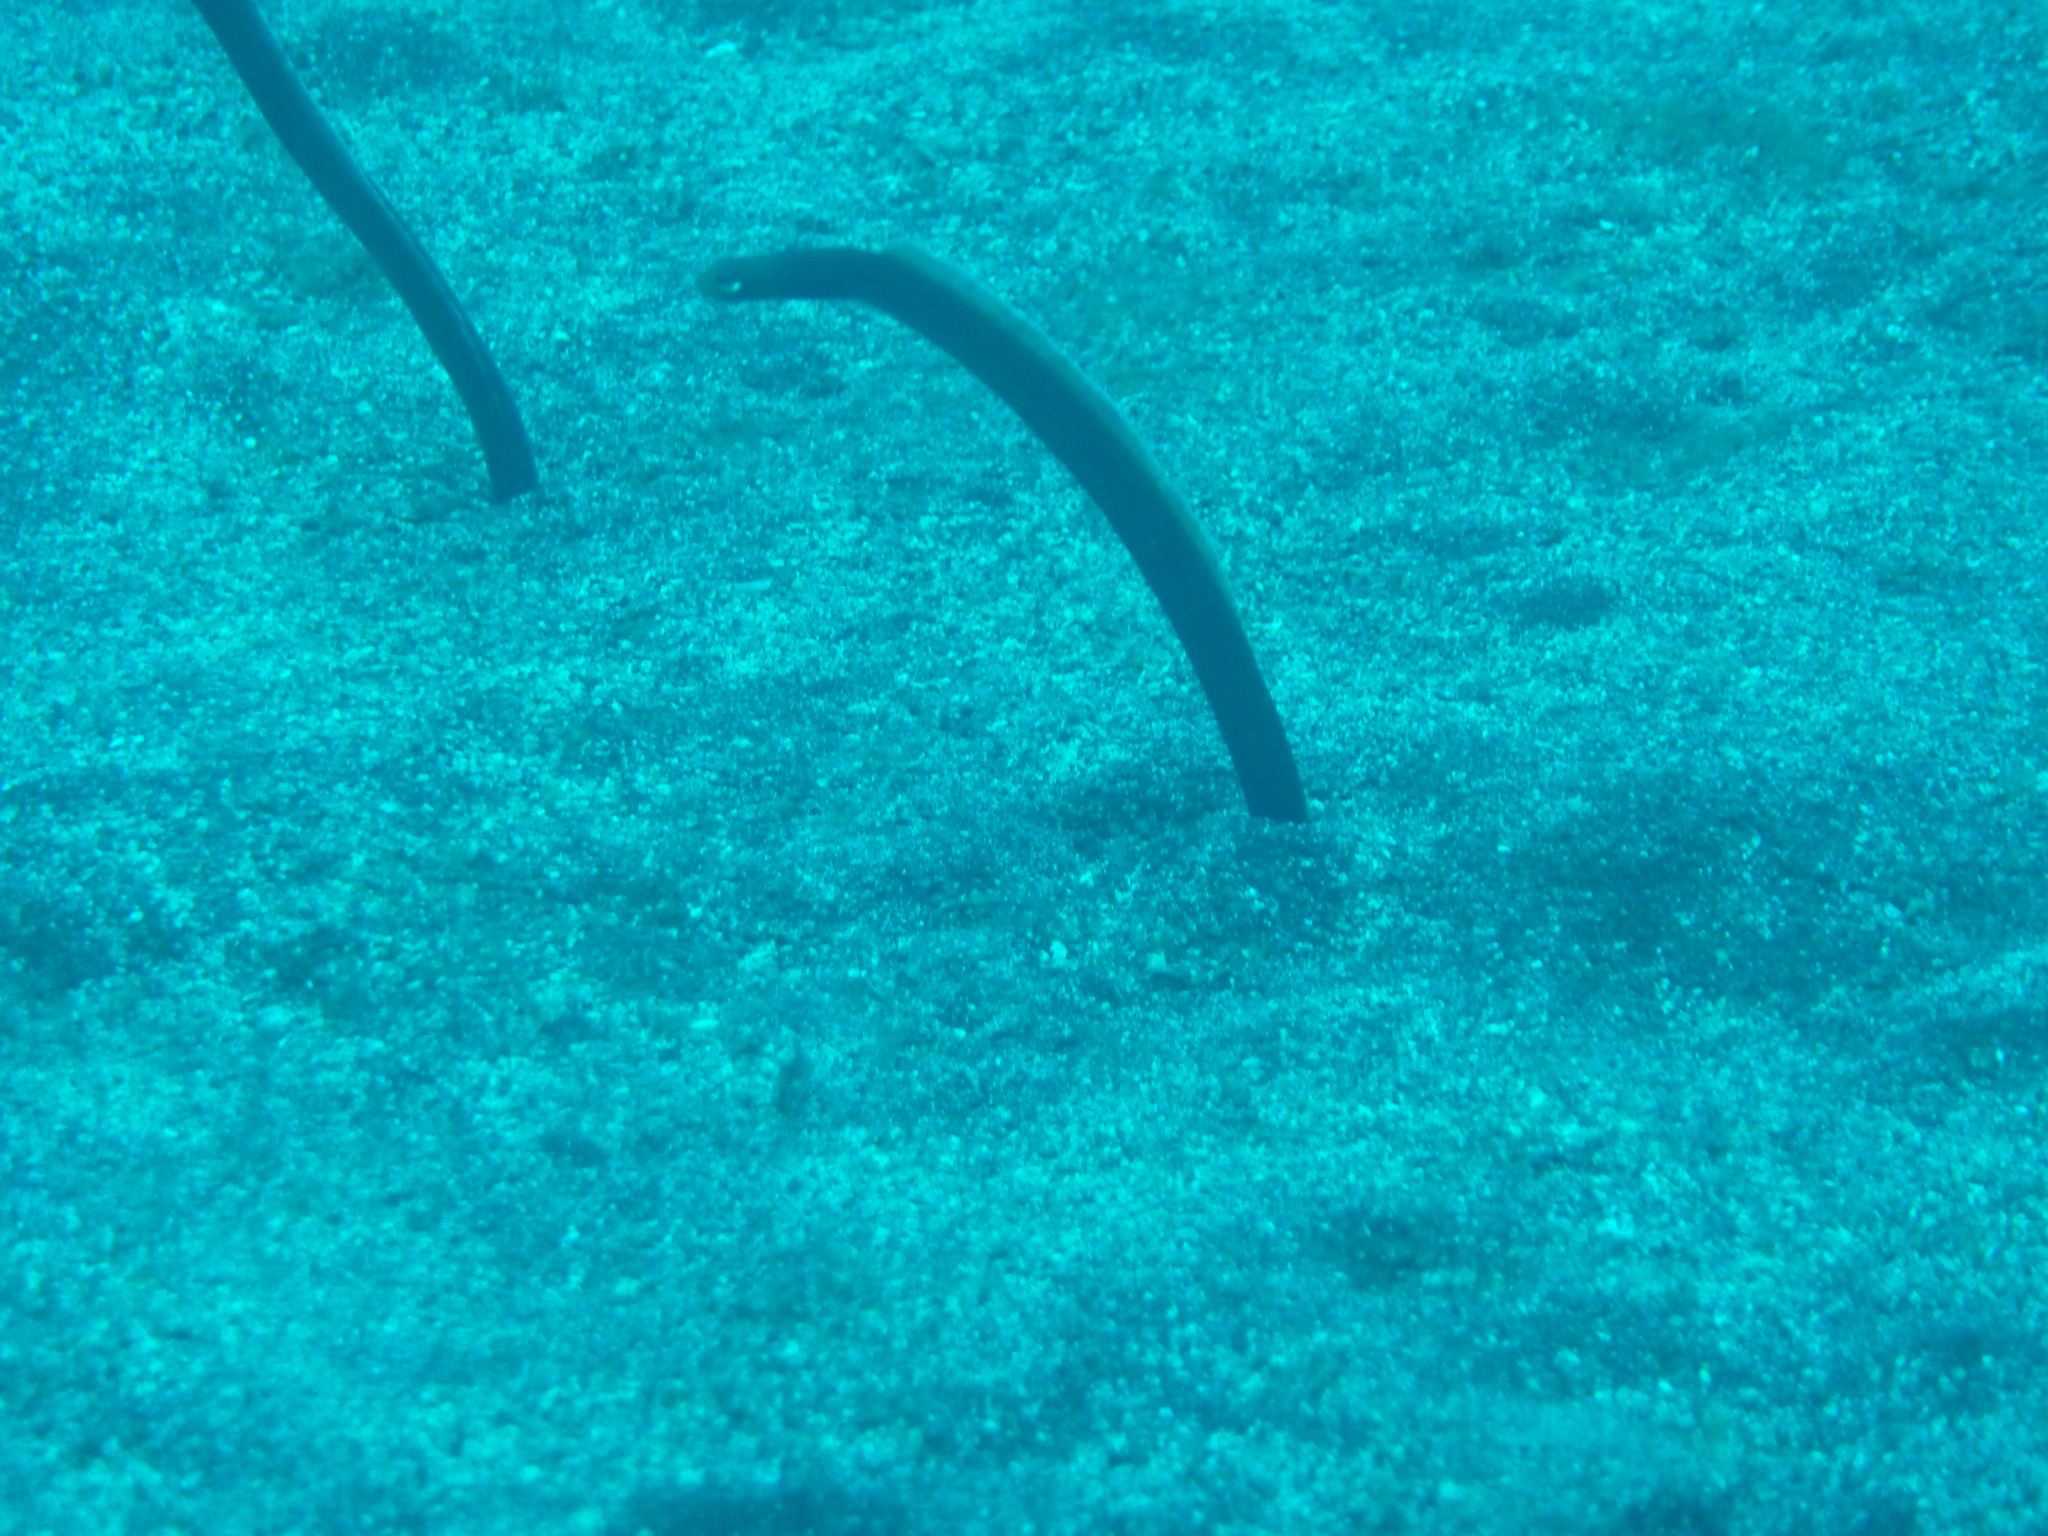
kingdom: Animalia
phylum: Chordata
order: Anguilliformes
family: Congridae
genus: Heteroconger
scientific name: Heteroconger longissimus
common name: Garden eel
